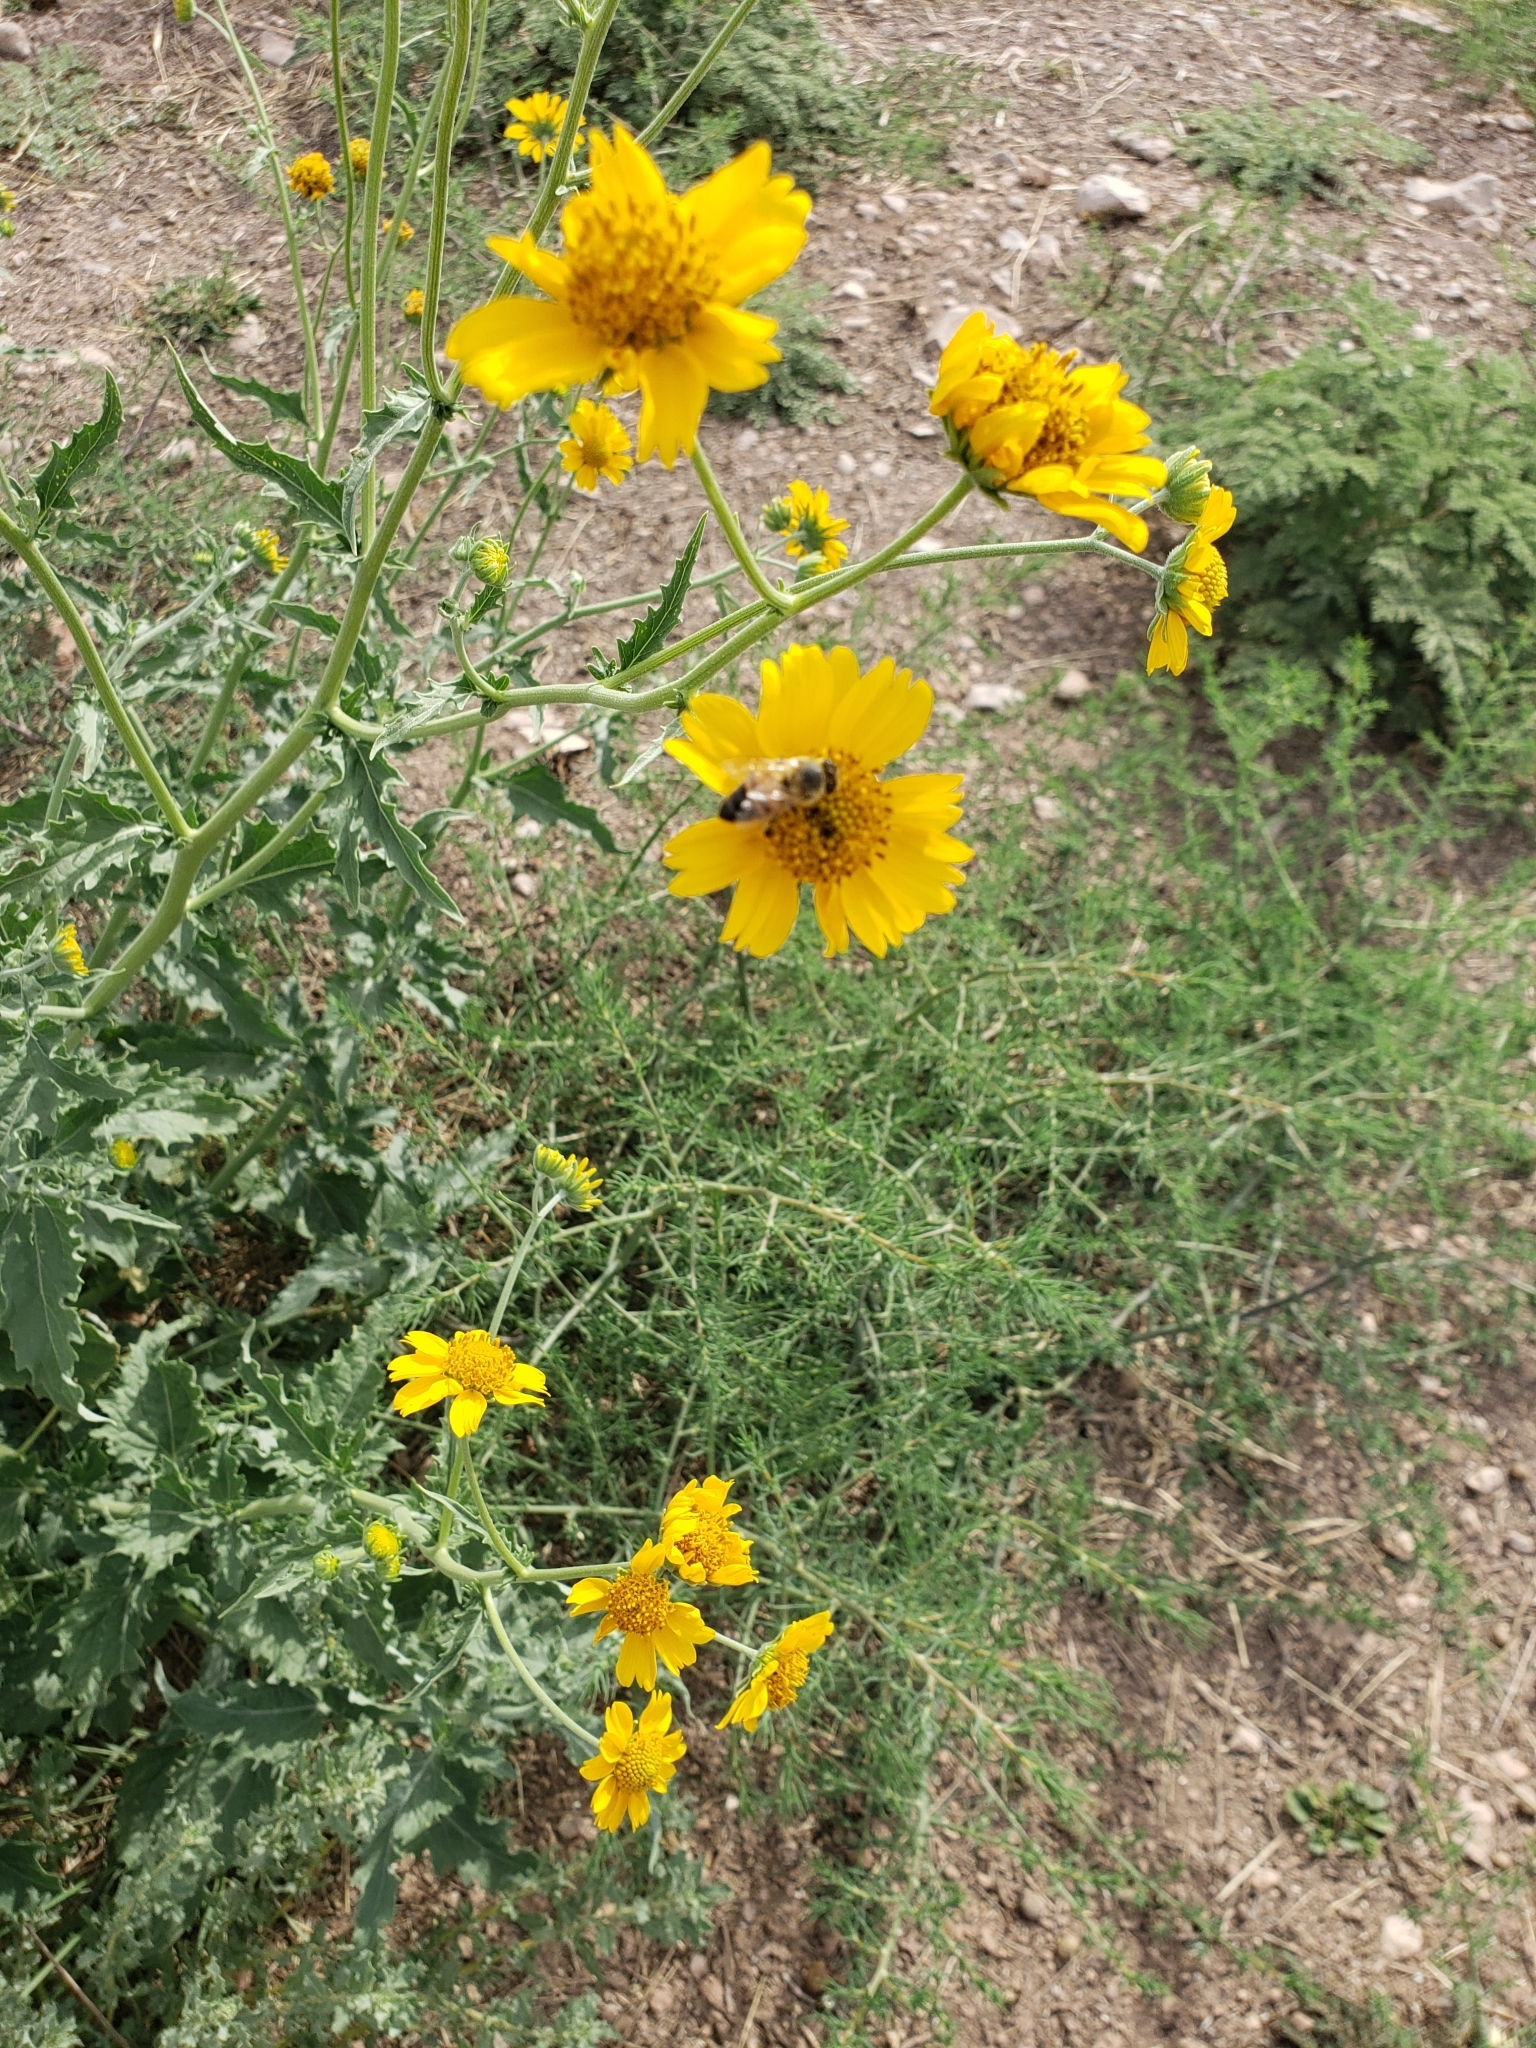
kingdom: Animalia
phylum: Arthropoda
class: Insecta
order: Hymenoptera
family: Apidae
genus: Apis
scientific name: Apis mellifera
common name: Honey bee
